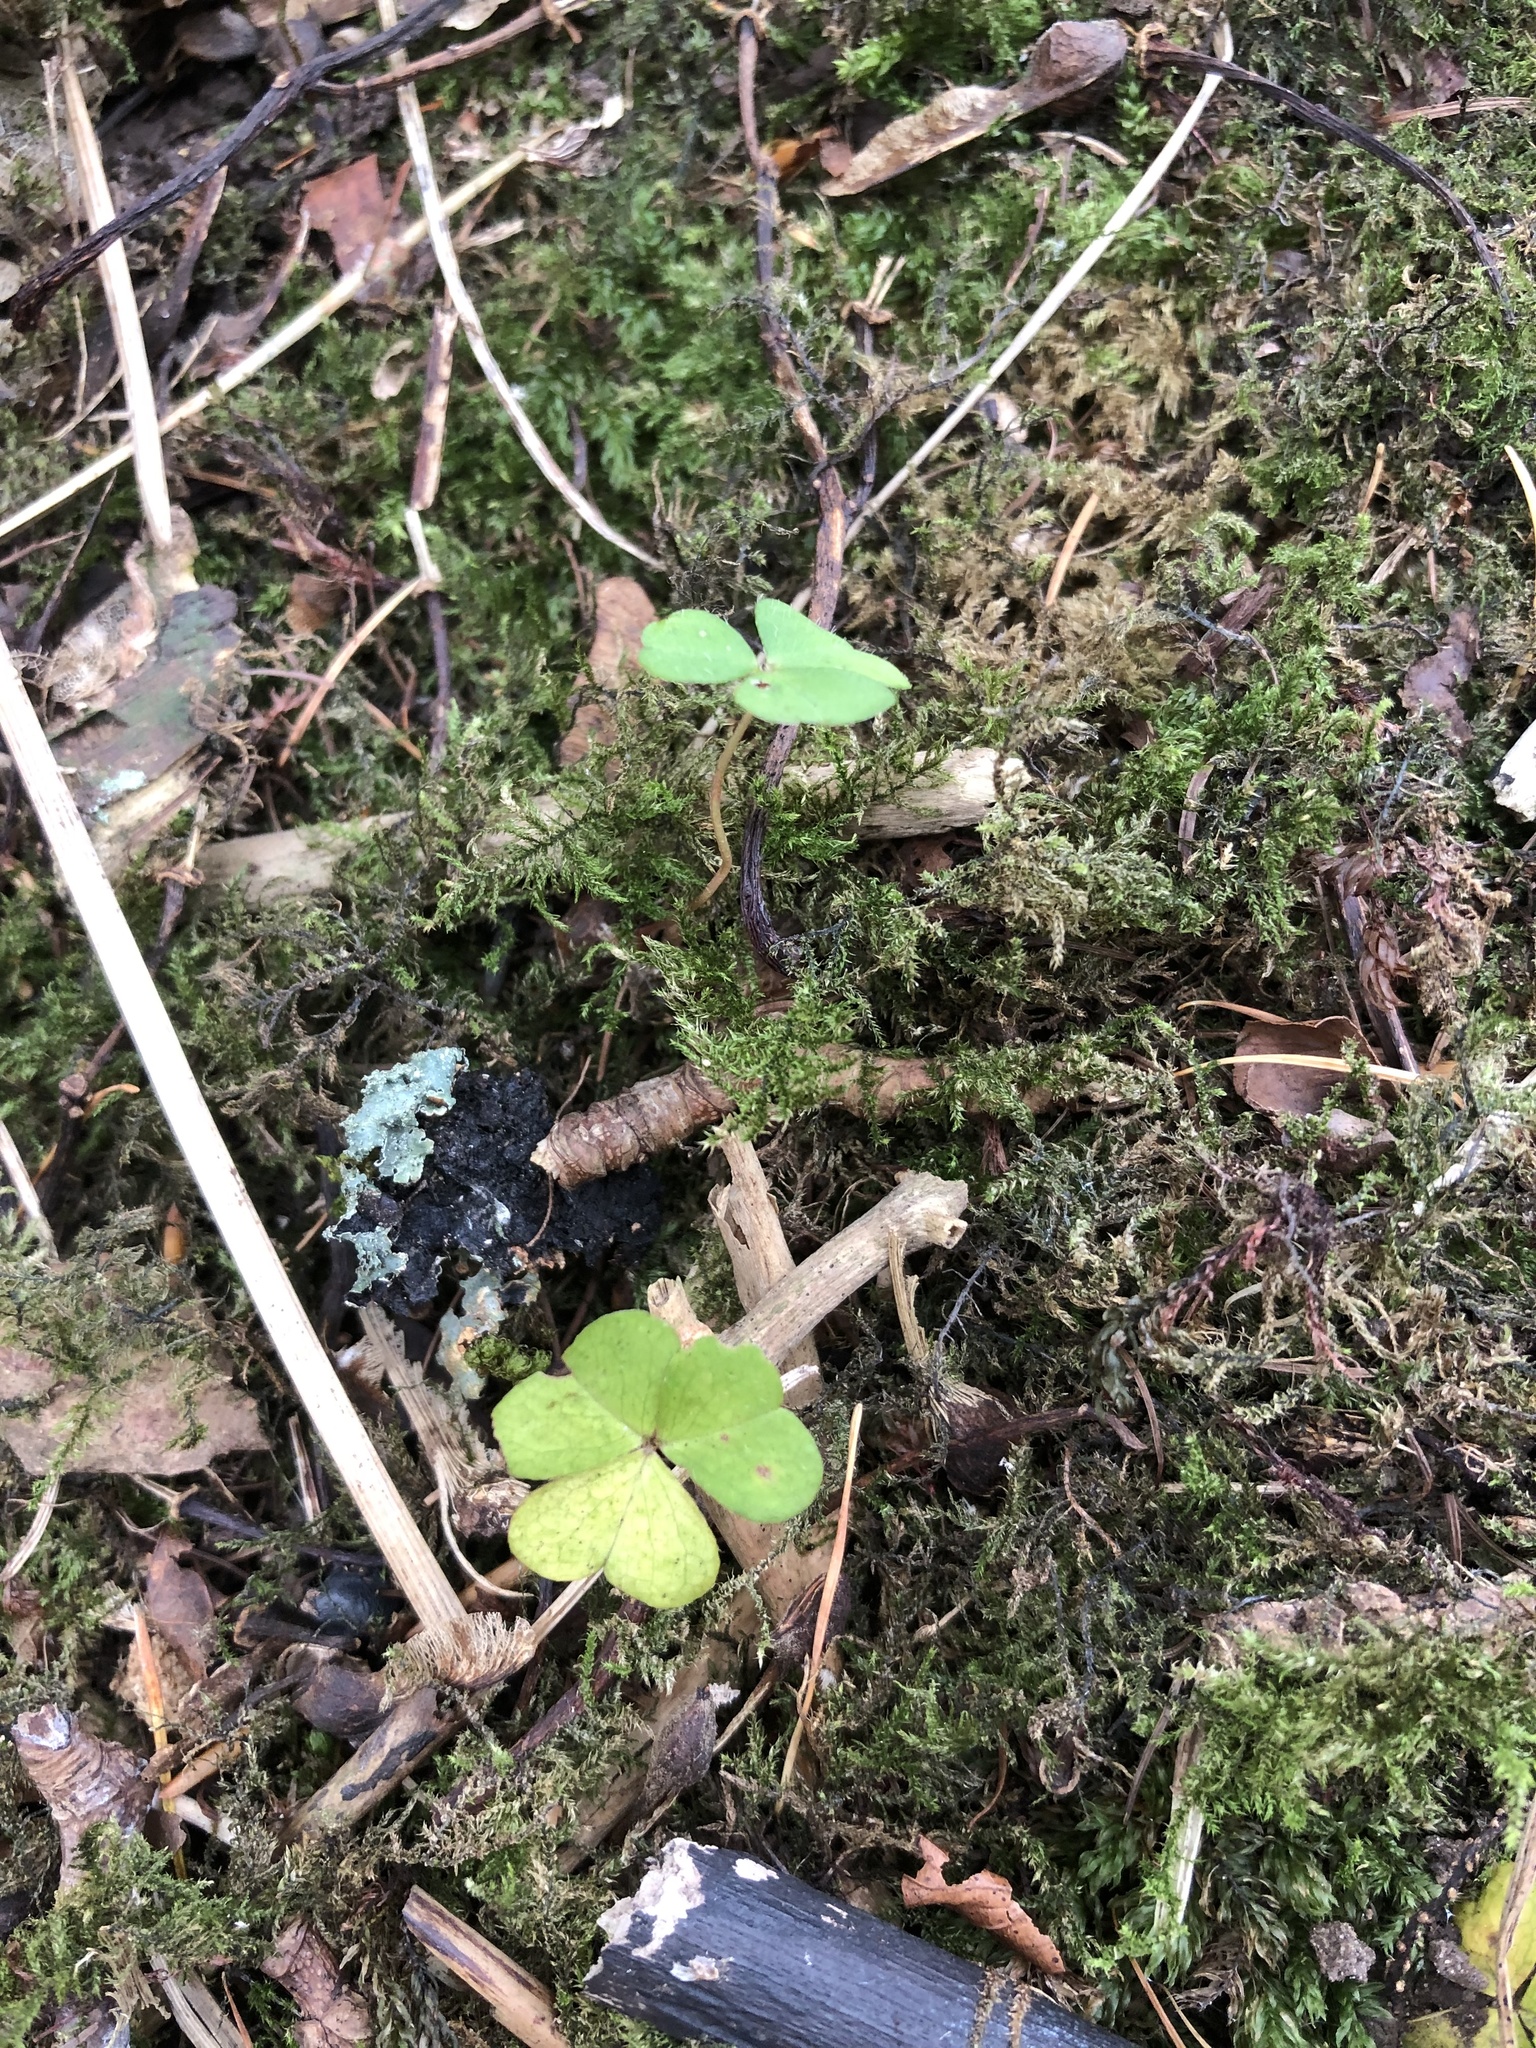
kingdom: Plantae
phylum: Tracheophyta
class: Magnoliopsida
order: Oxalidales
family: Oxalidaceae
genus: Oxalis
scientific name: Oxalis acetosella
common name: Wood-sorrel
